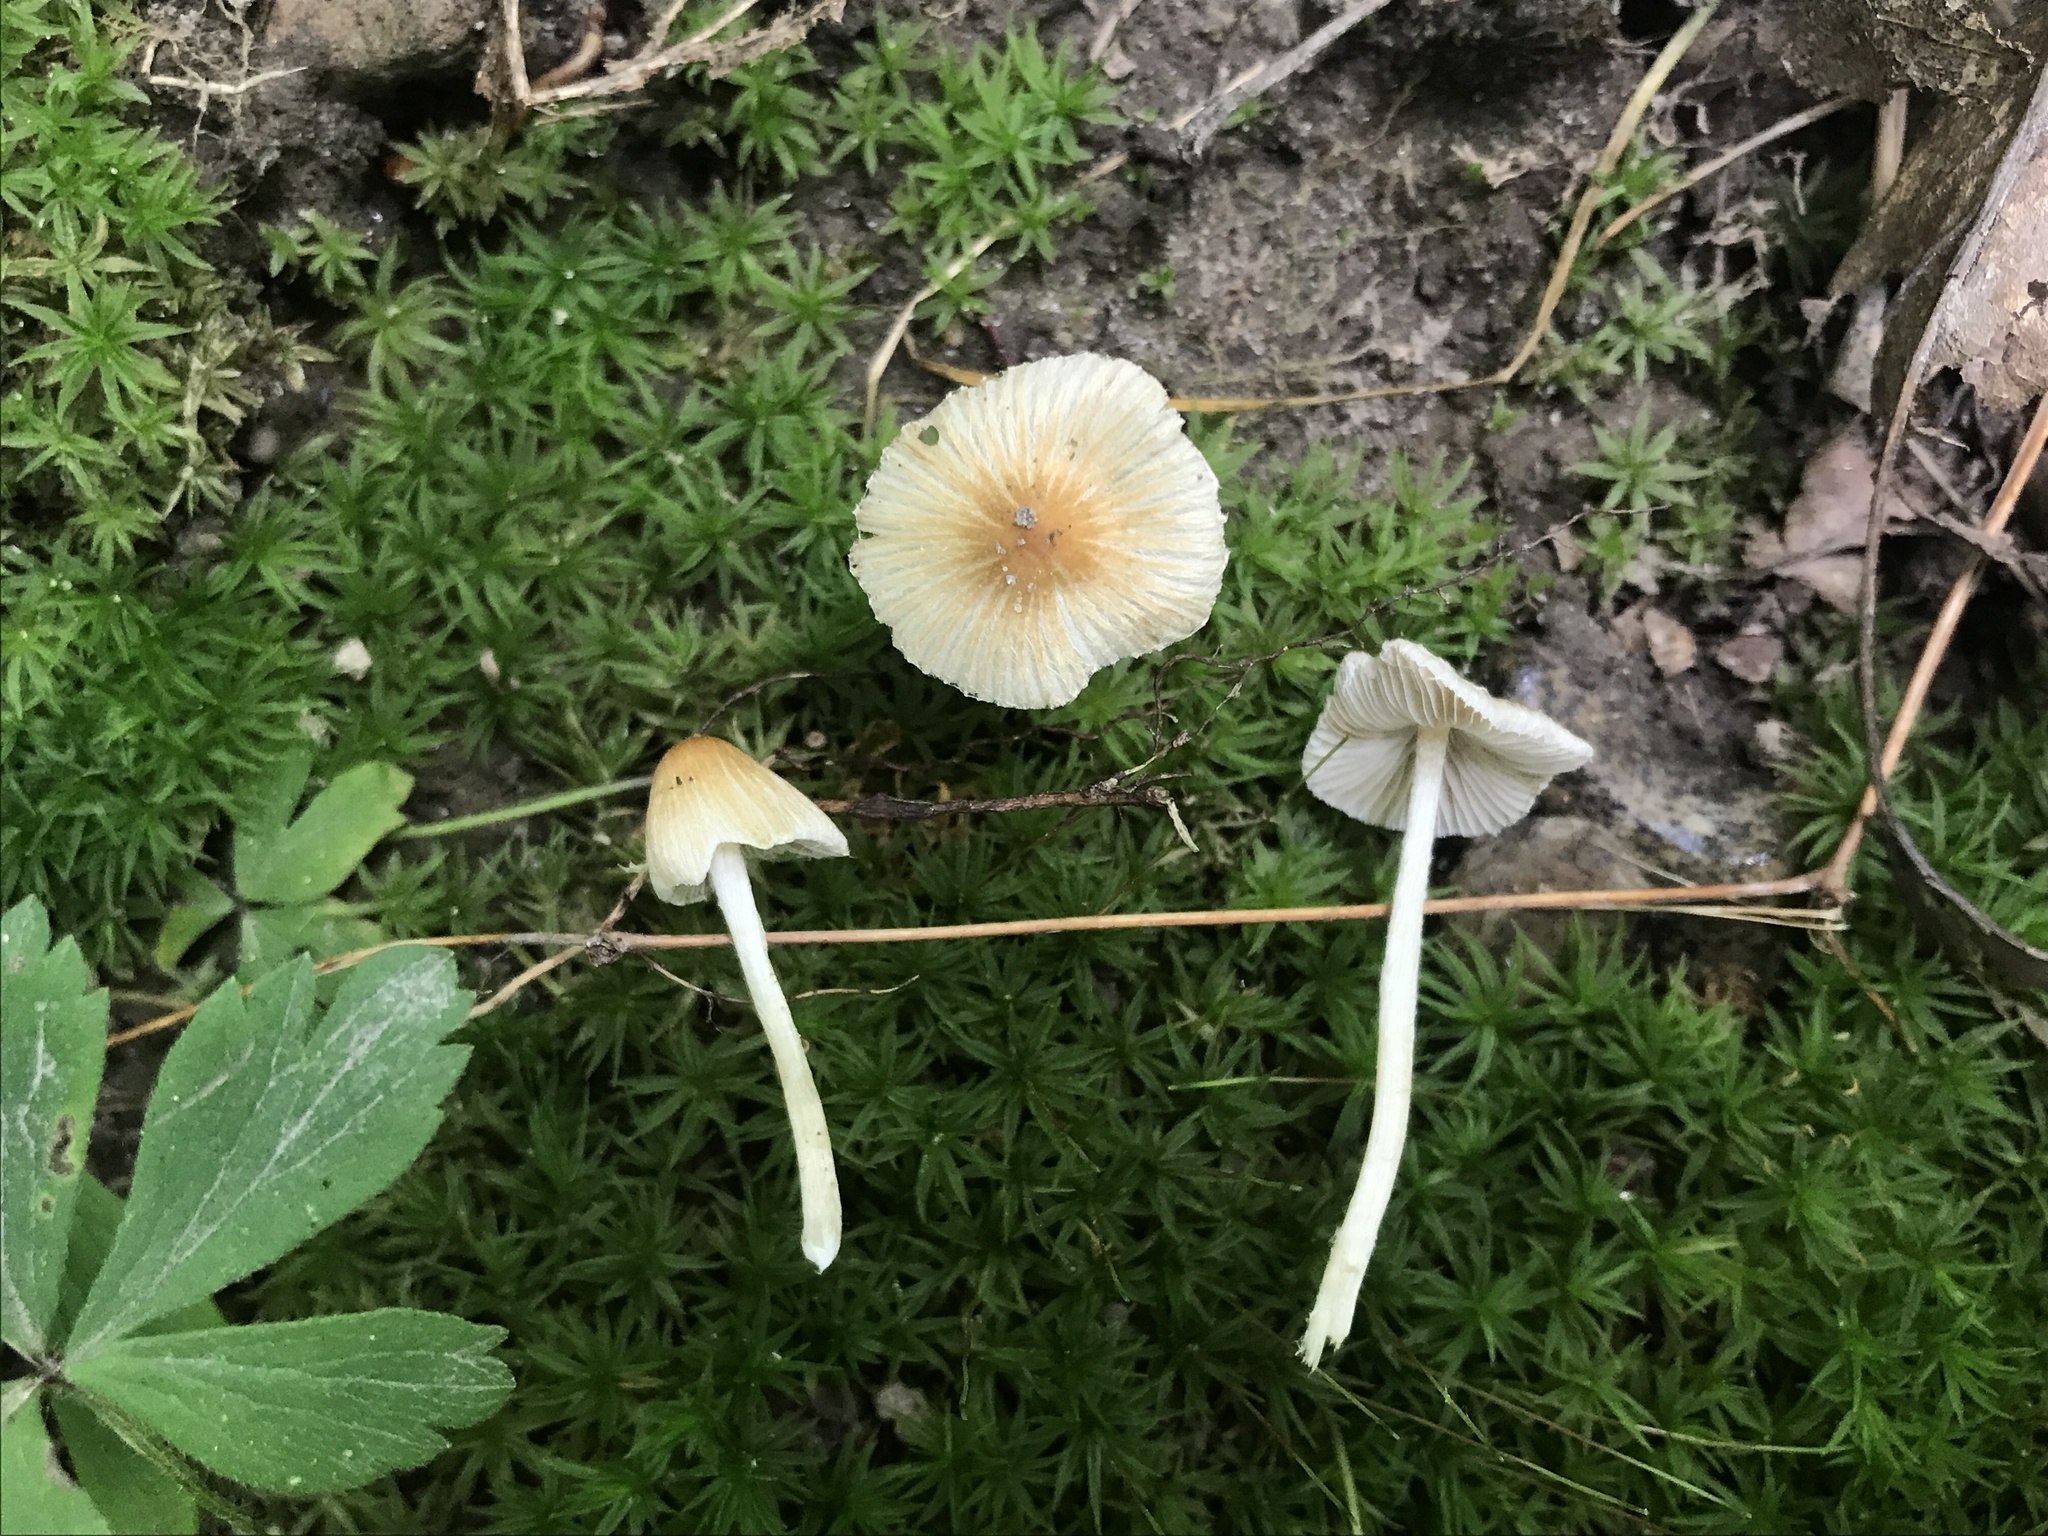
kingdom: Fungi
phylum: Basidiomycota
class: Agaricomycetes
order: Agaricales
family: Inocybaceae
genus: Pseudosperma
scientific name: Pseudosperma sororium
